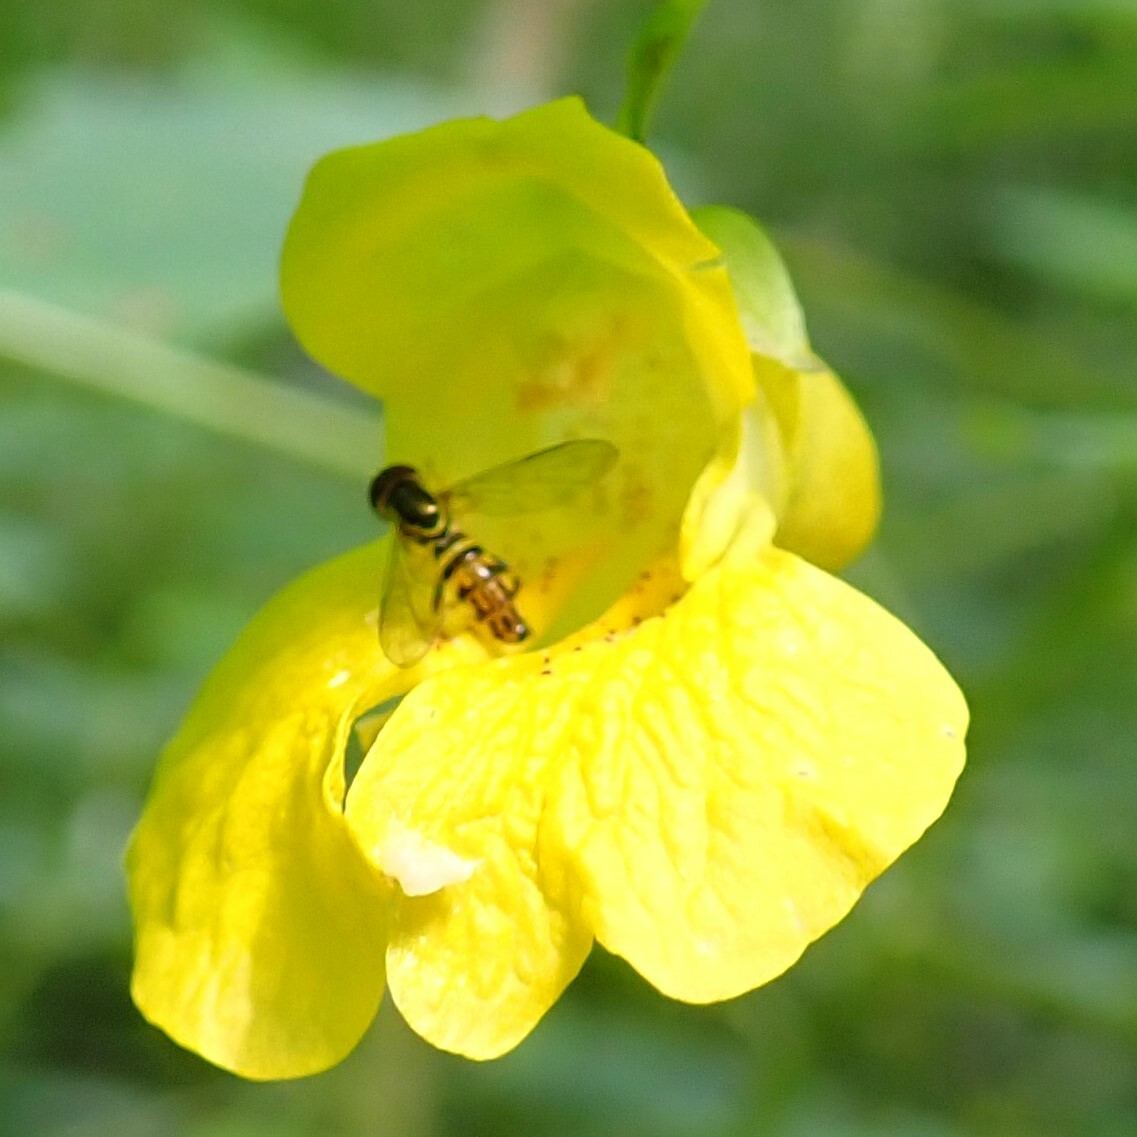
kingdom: Animalia
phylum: Arthropoda
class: Insecta
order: Diptera
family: Syrphidae
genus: Toxomerus
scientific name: Toxomerus geminatus
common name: Eastern calligrapher
